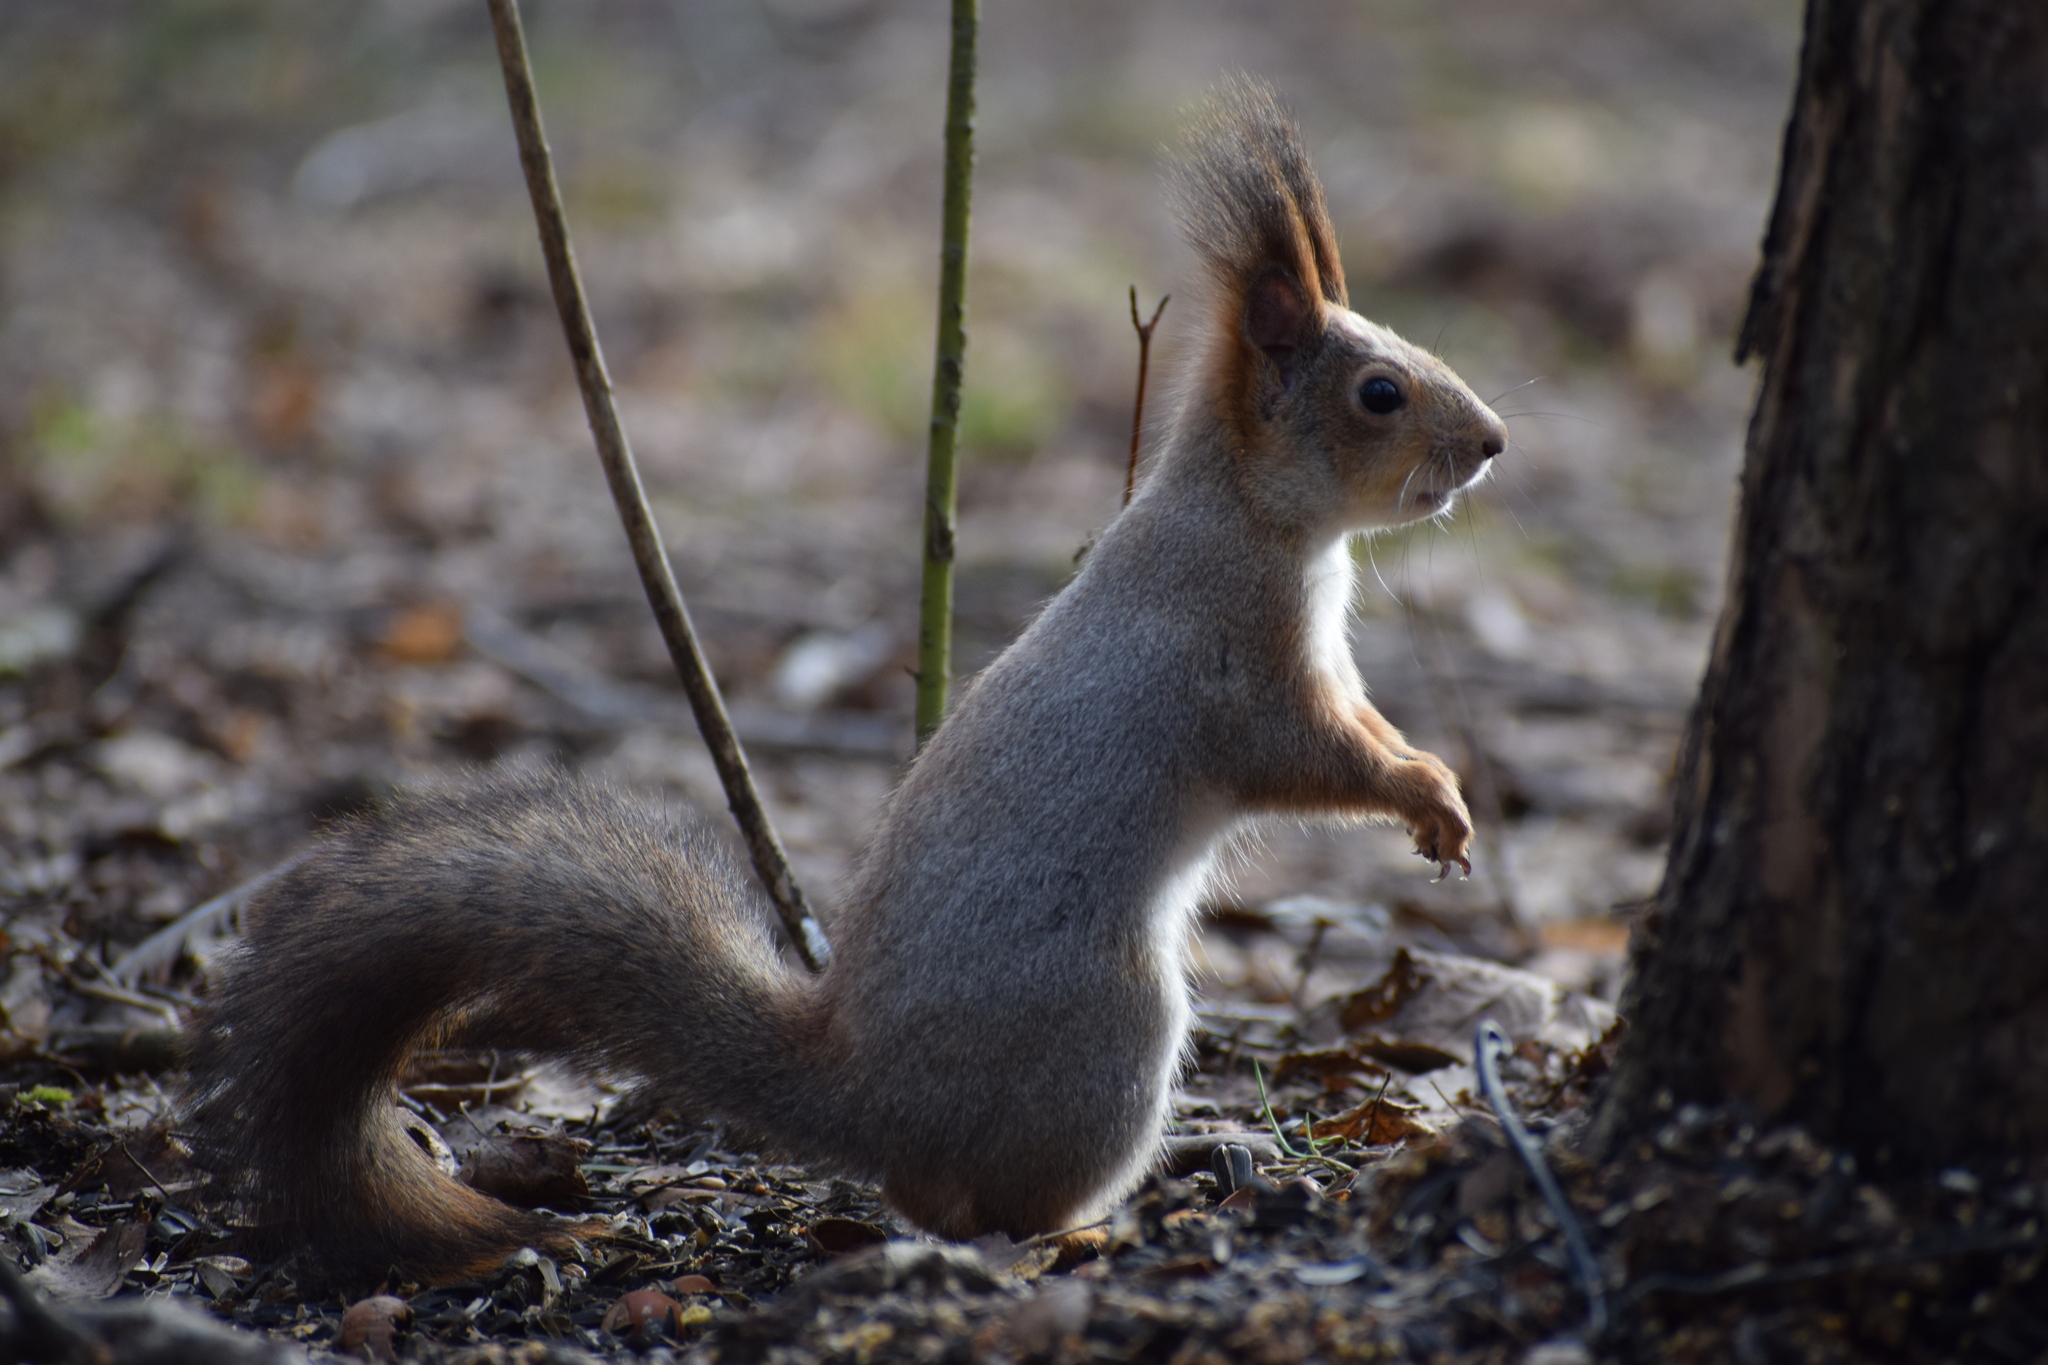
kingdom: Animalia
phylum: Chordata
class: Mammalia
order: Rodentia
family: Sciuridae
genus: Sciurus
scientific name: Sciurus vulgaris
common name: Eurasian red squirrel
